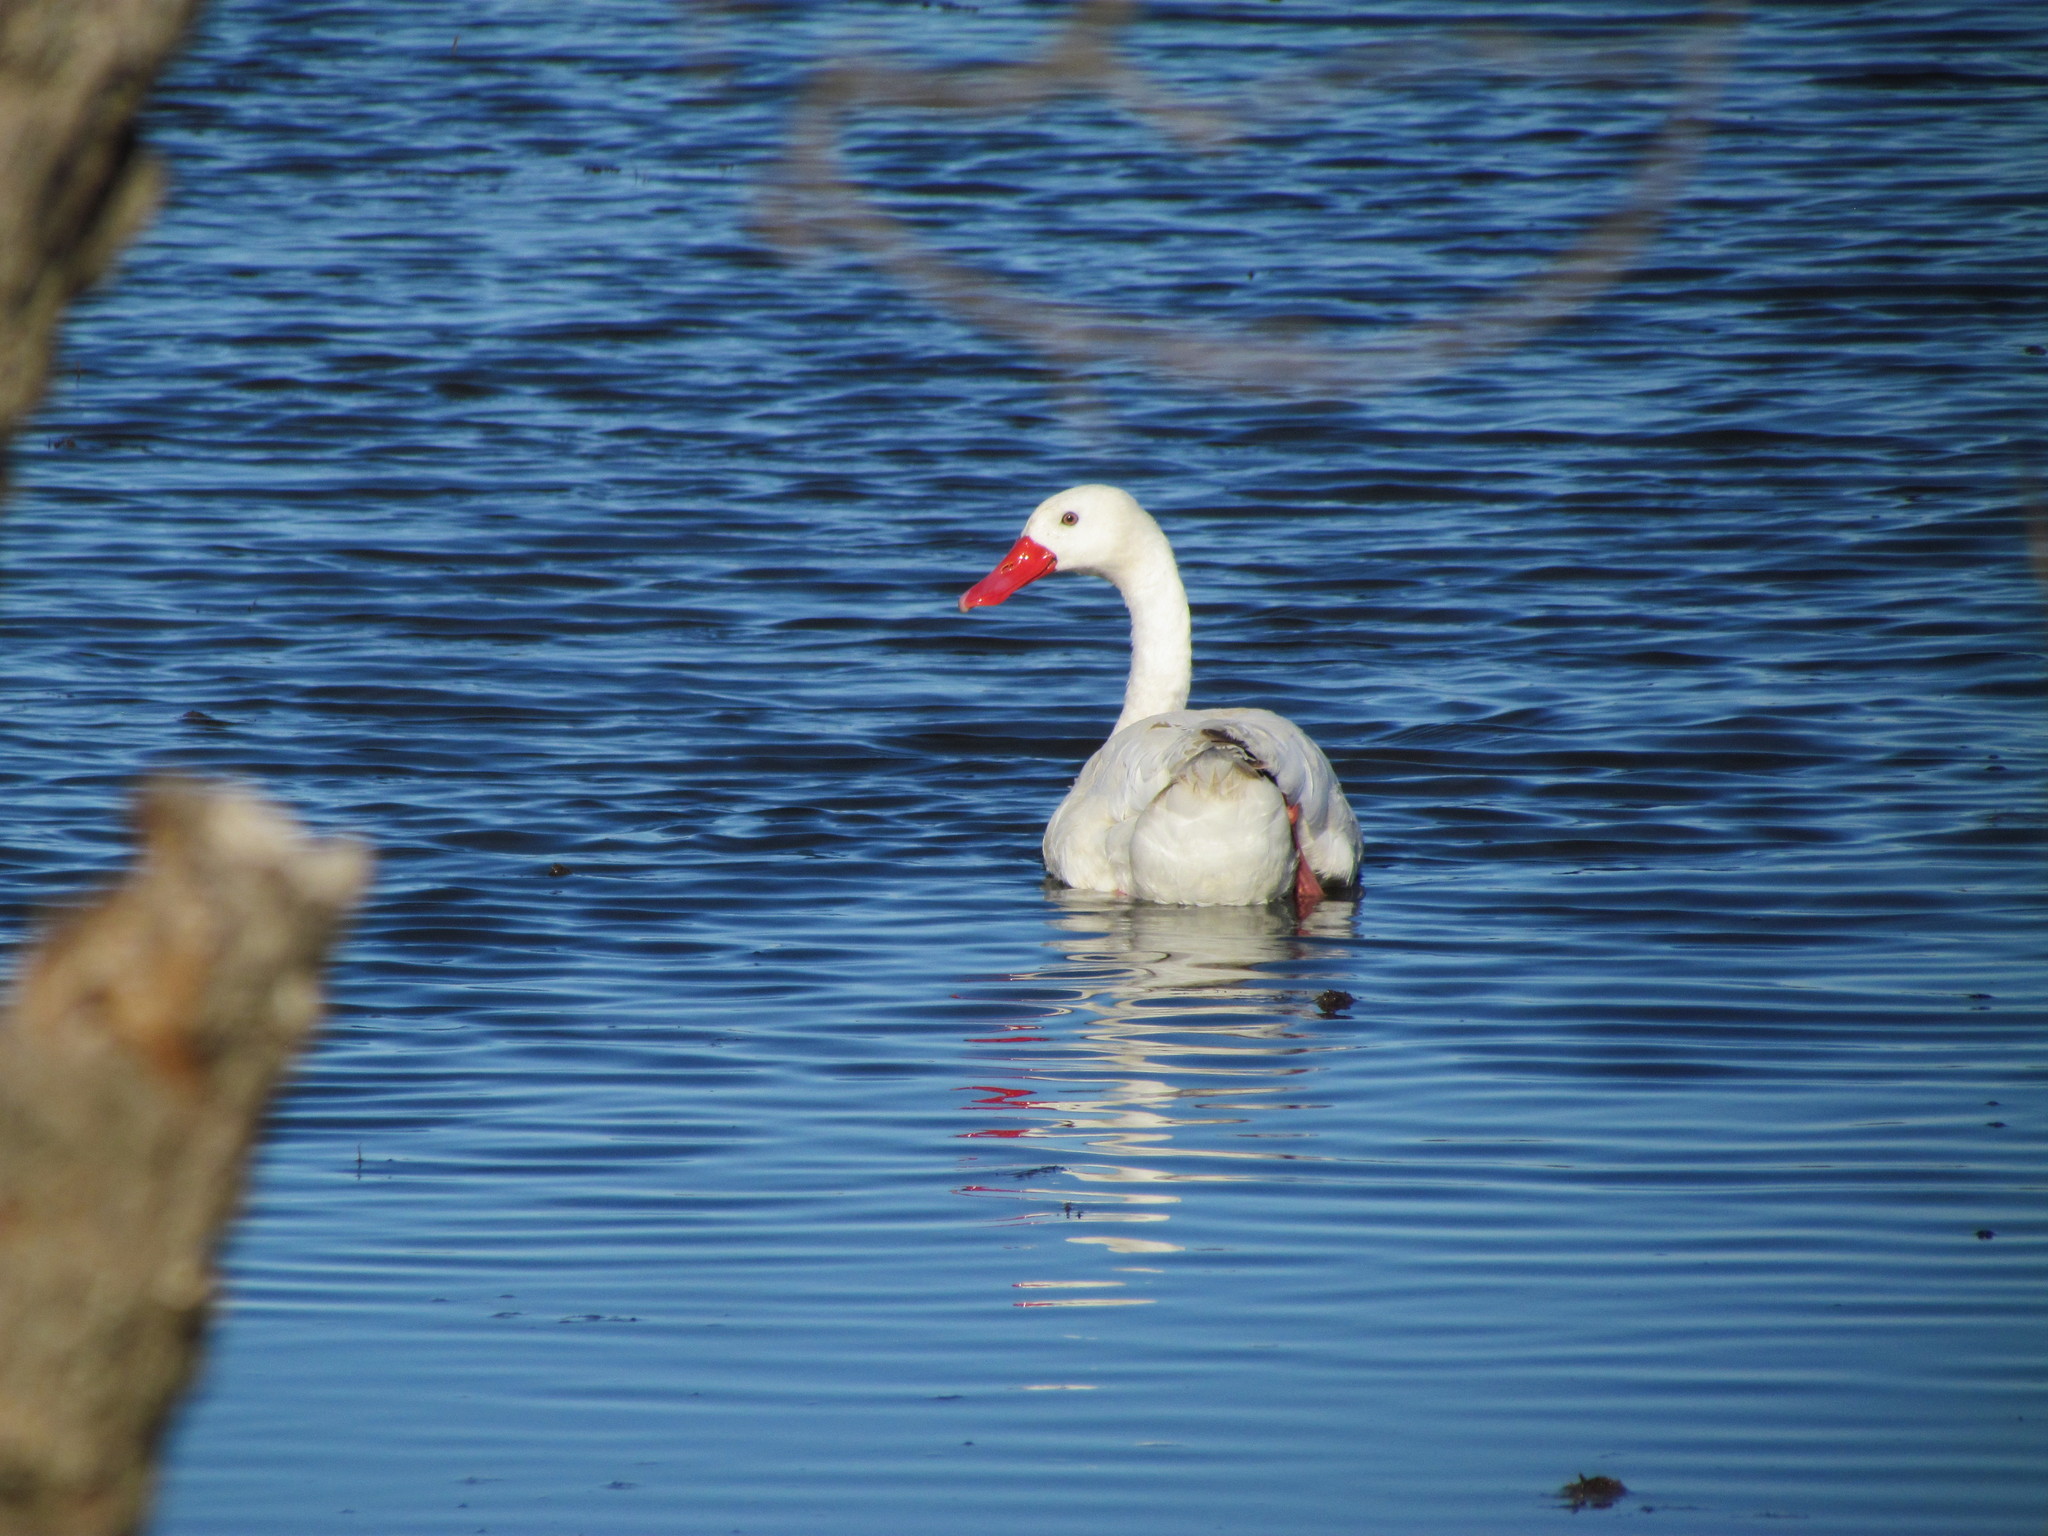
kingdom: Animalia
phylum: Chordata
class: Aves
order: Anseriformes
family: Anatidae
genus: Coscoroba
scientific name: Coscoroba coscoroba
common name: Coscoroba swan
